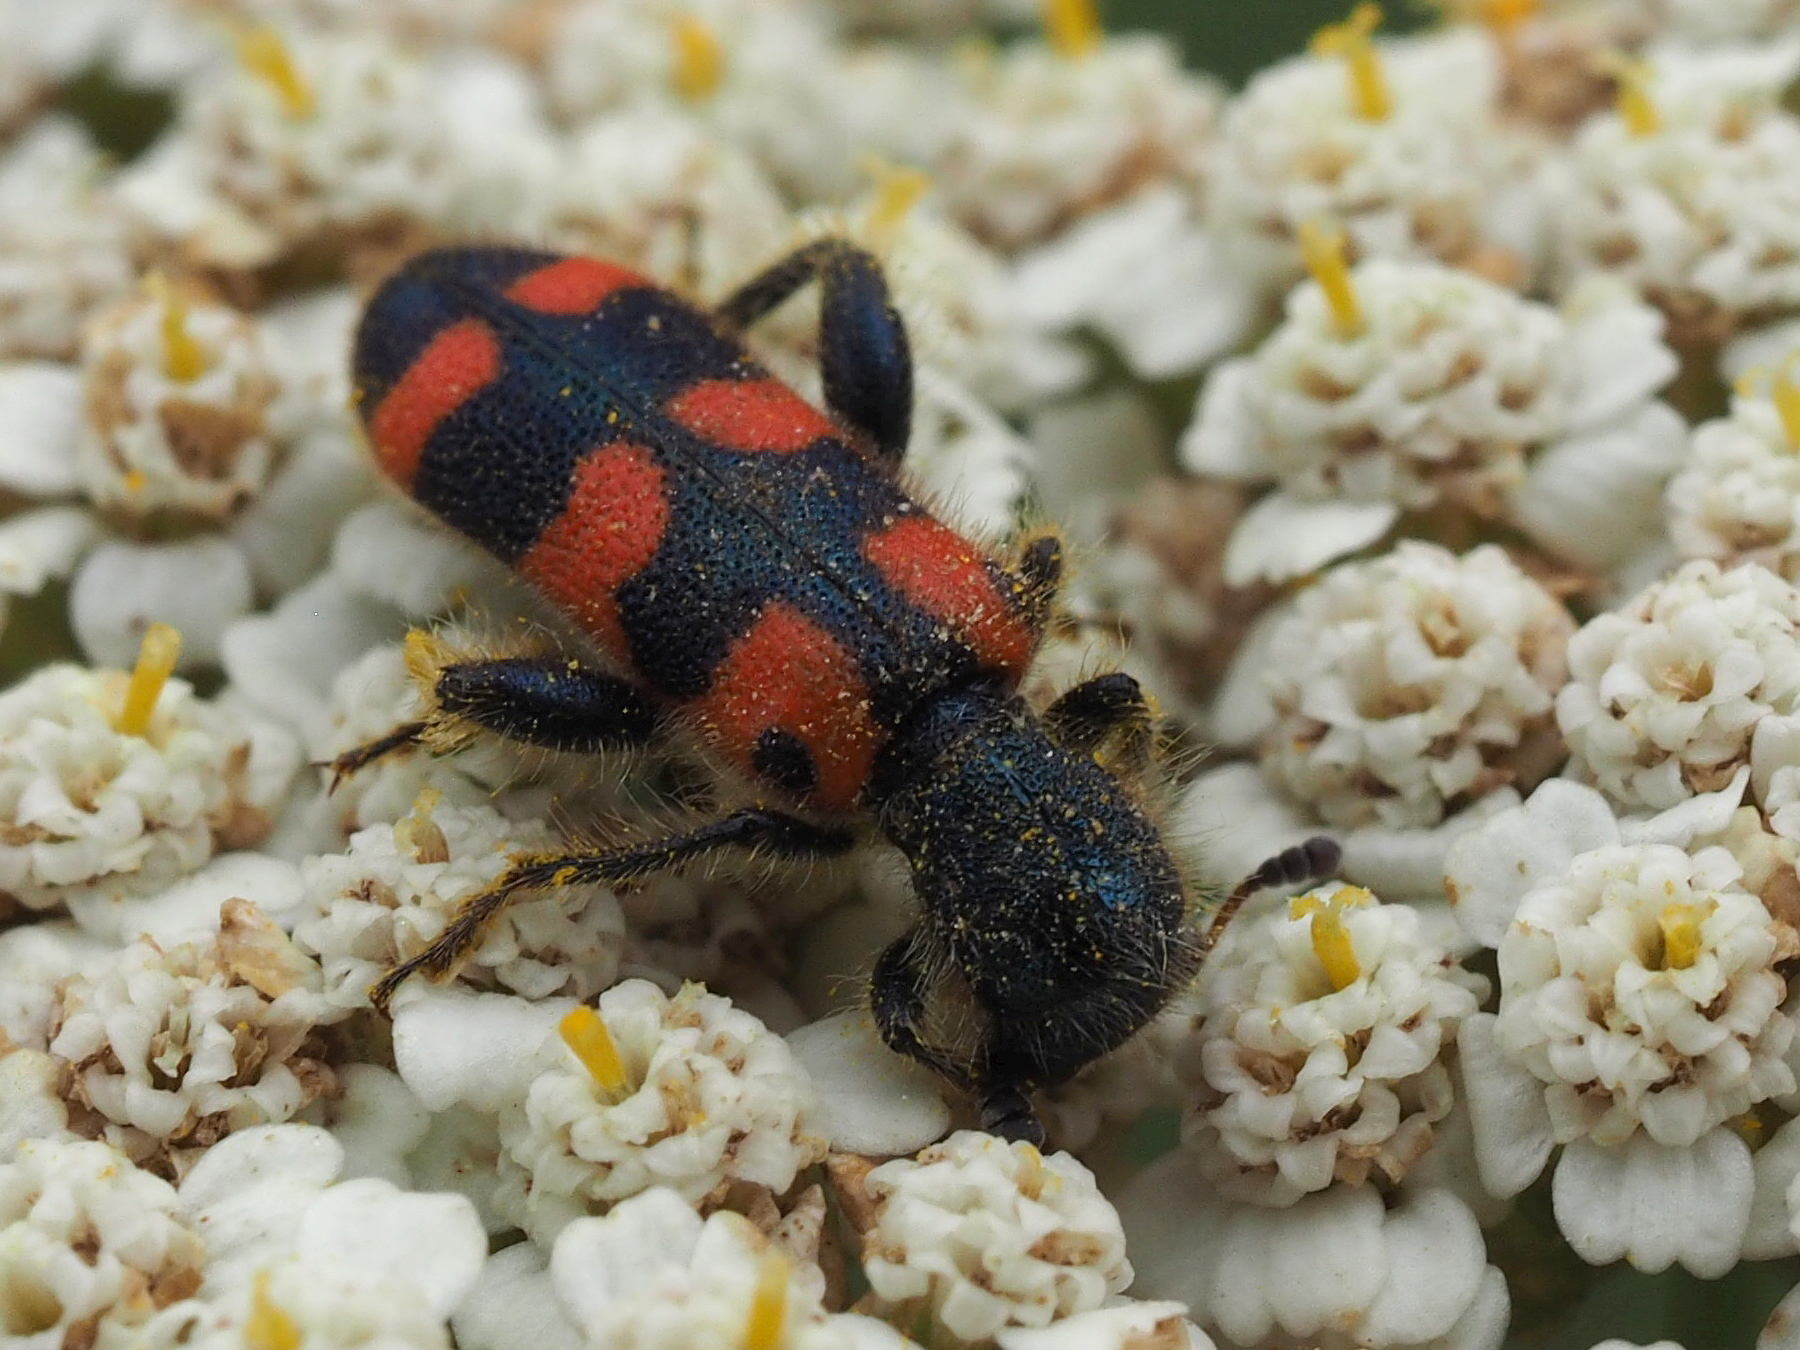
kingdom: Animalia
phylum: Arthropoda
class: Insecta
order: Coleoptera
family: Cleridae
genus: Trichodes
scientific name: Trichodes leucopsideus
